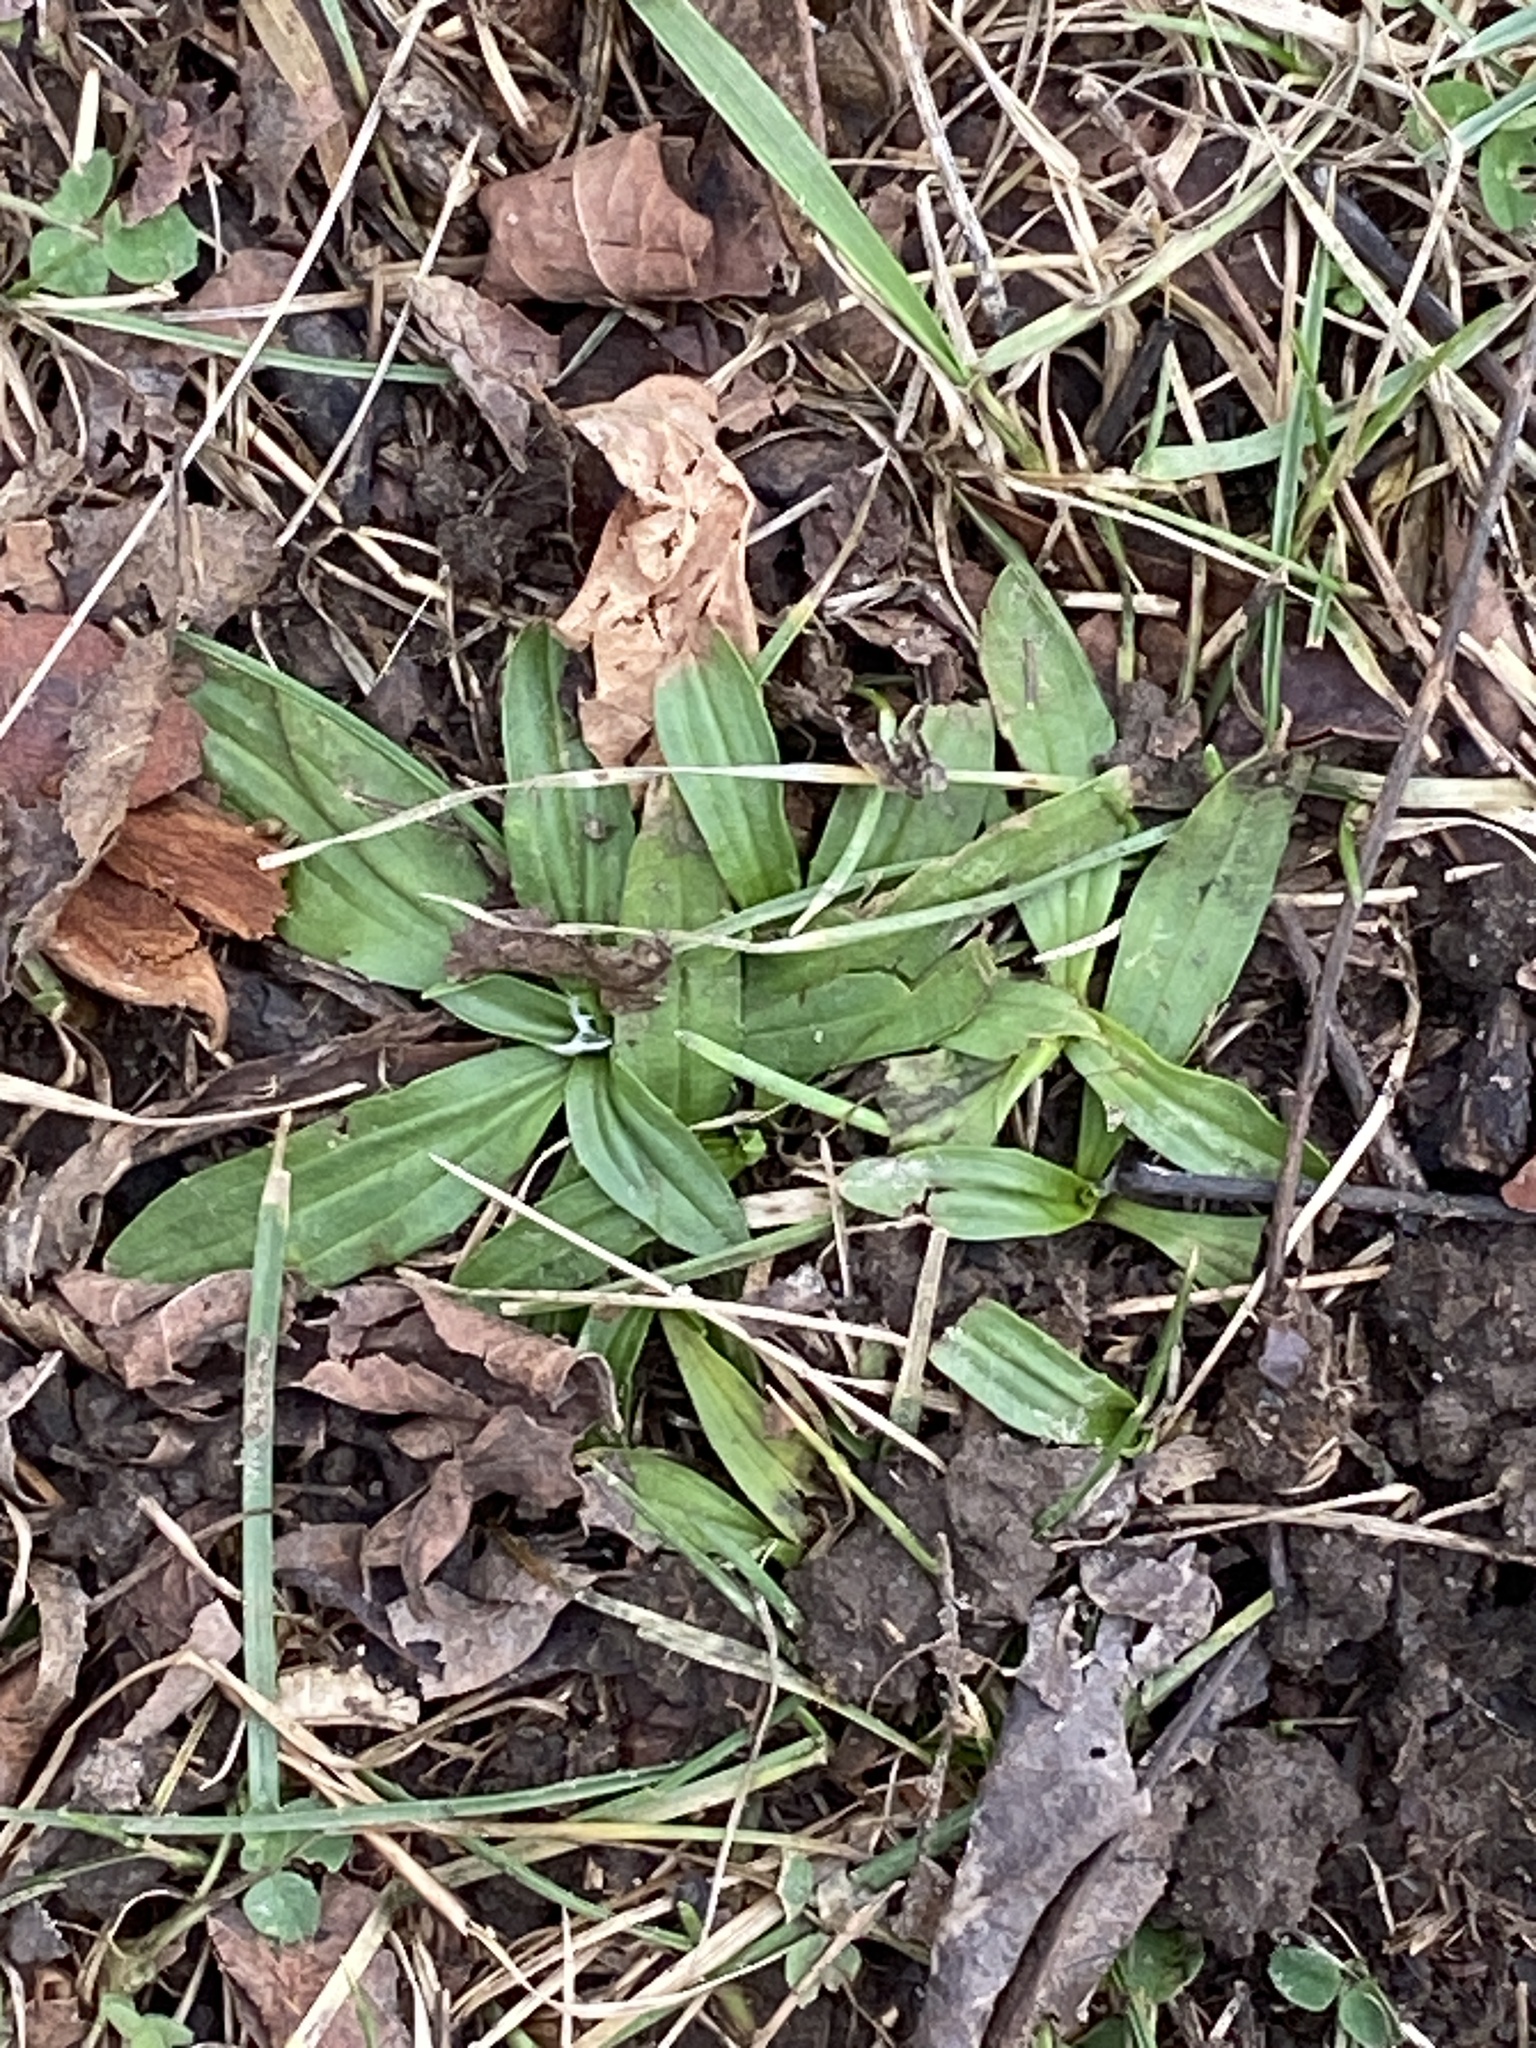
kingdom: Plantae
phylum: Tracheophyta
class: Magnoliopsida
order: Lamiales
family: Plantaginaceae
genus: Plantago
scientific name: Plantago lanceolata
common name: Ribwort plantain
